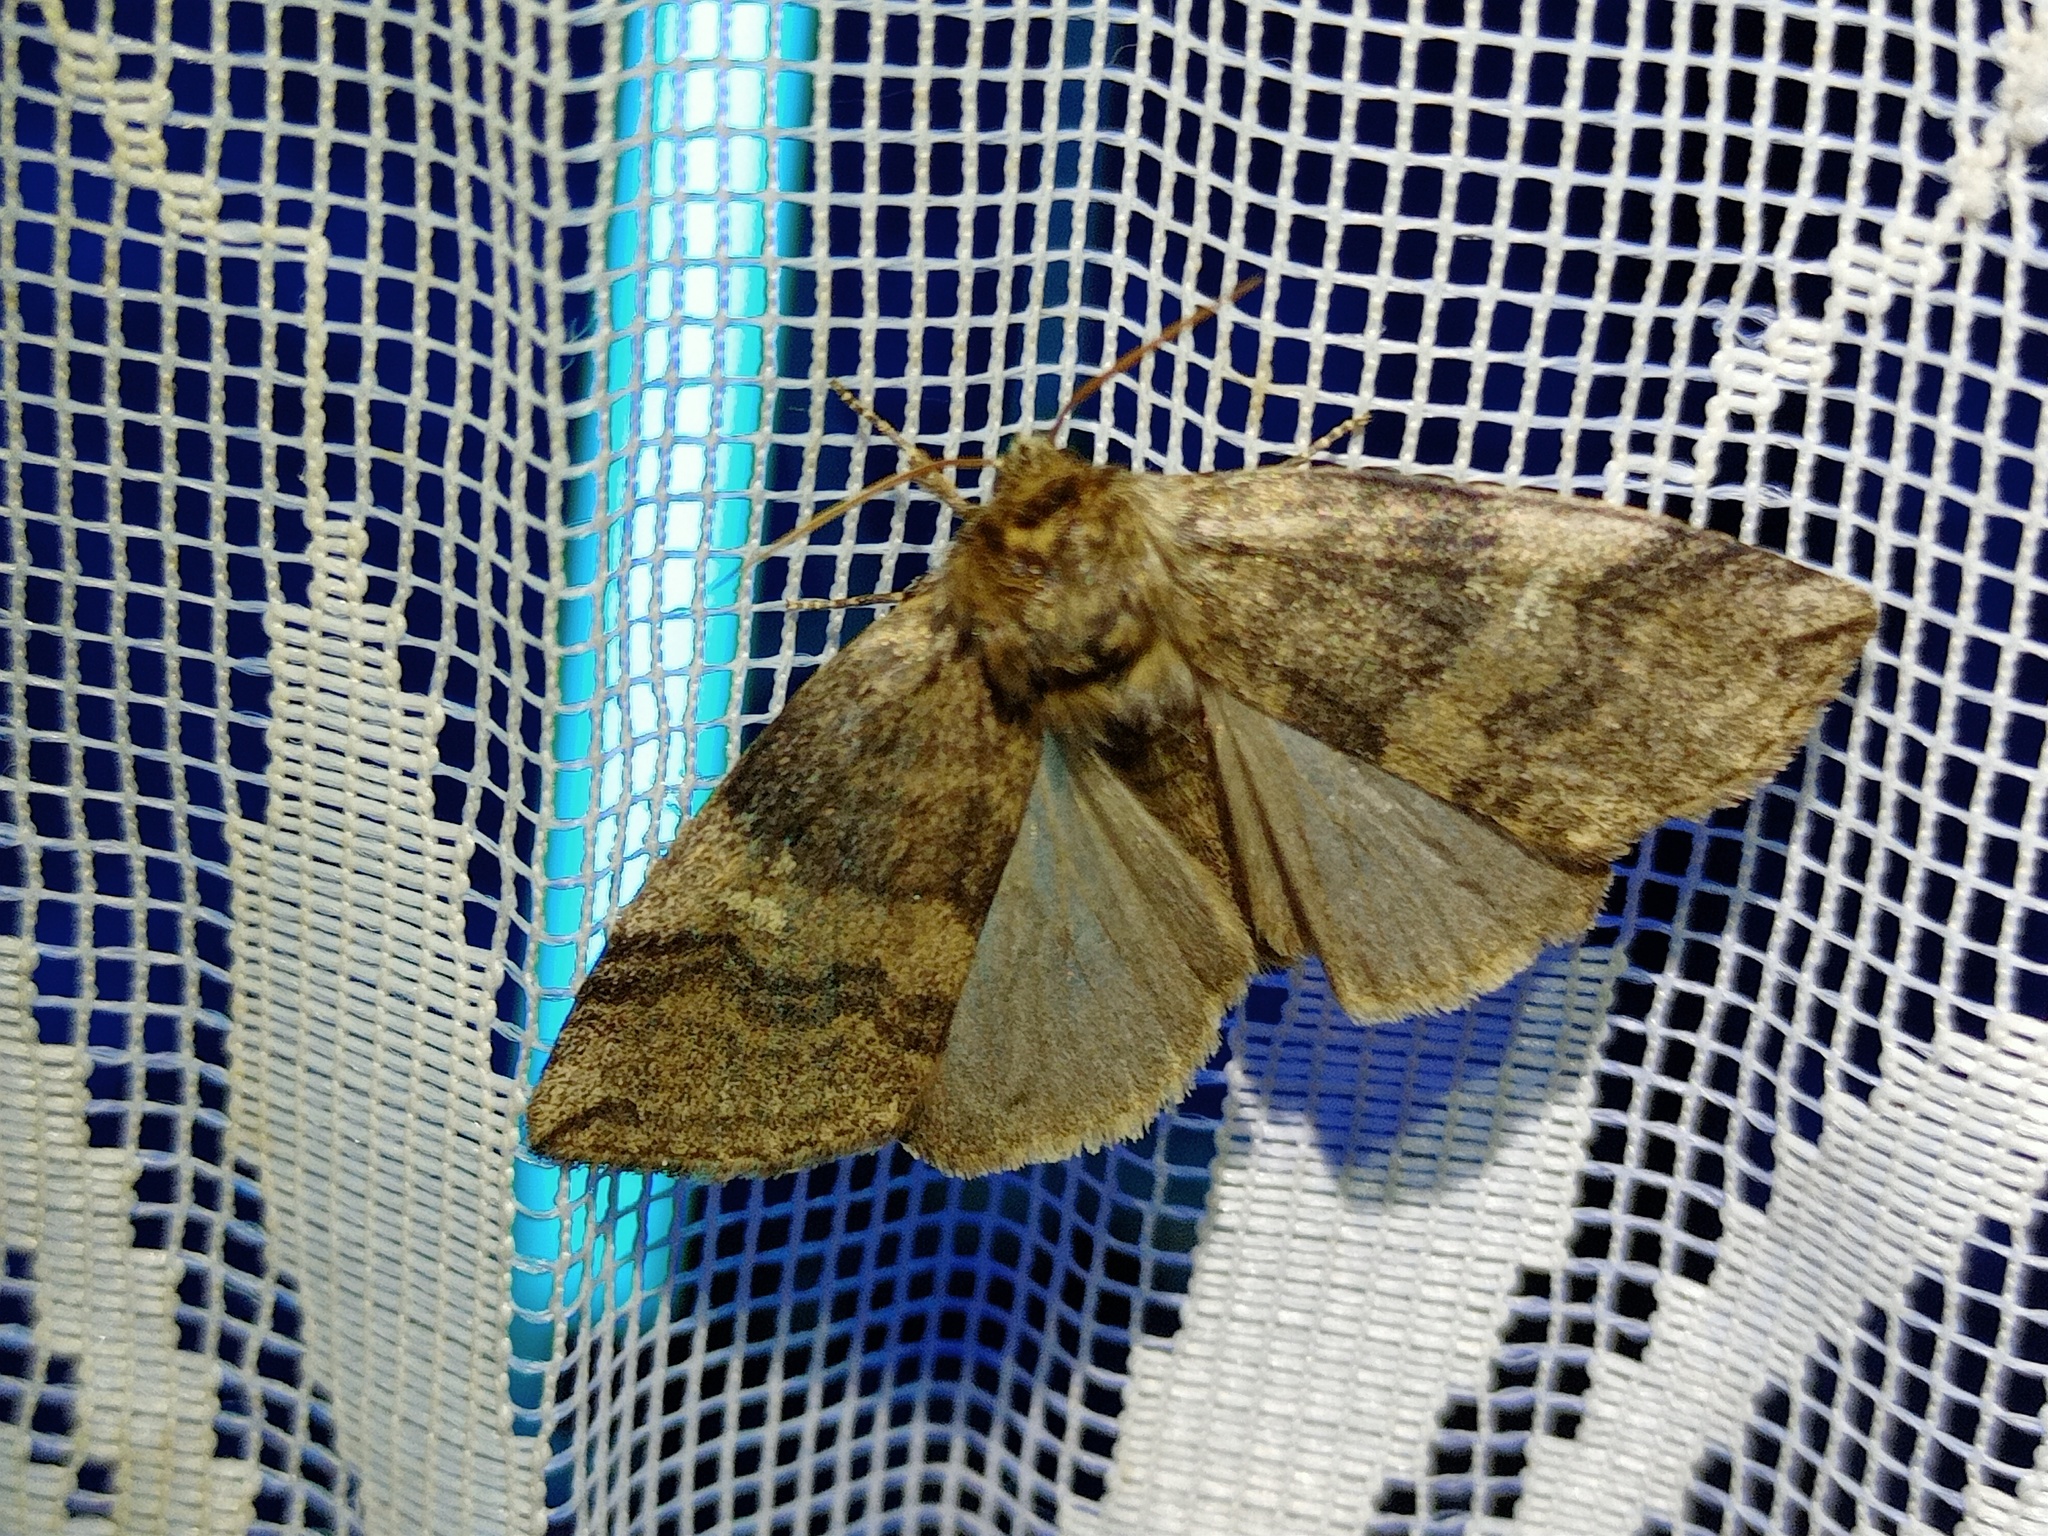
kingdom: Animalia
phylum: Arthropoda
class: Insecta
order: Lepidoptera
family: Drepanidae
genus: Tethea
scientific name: Tethea or
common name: Poplar lutestring
